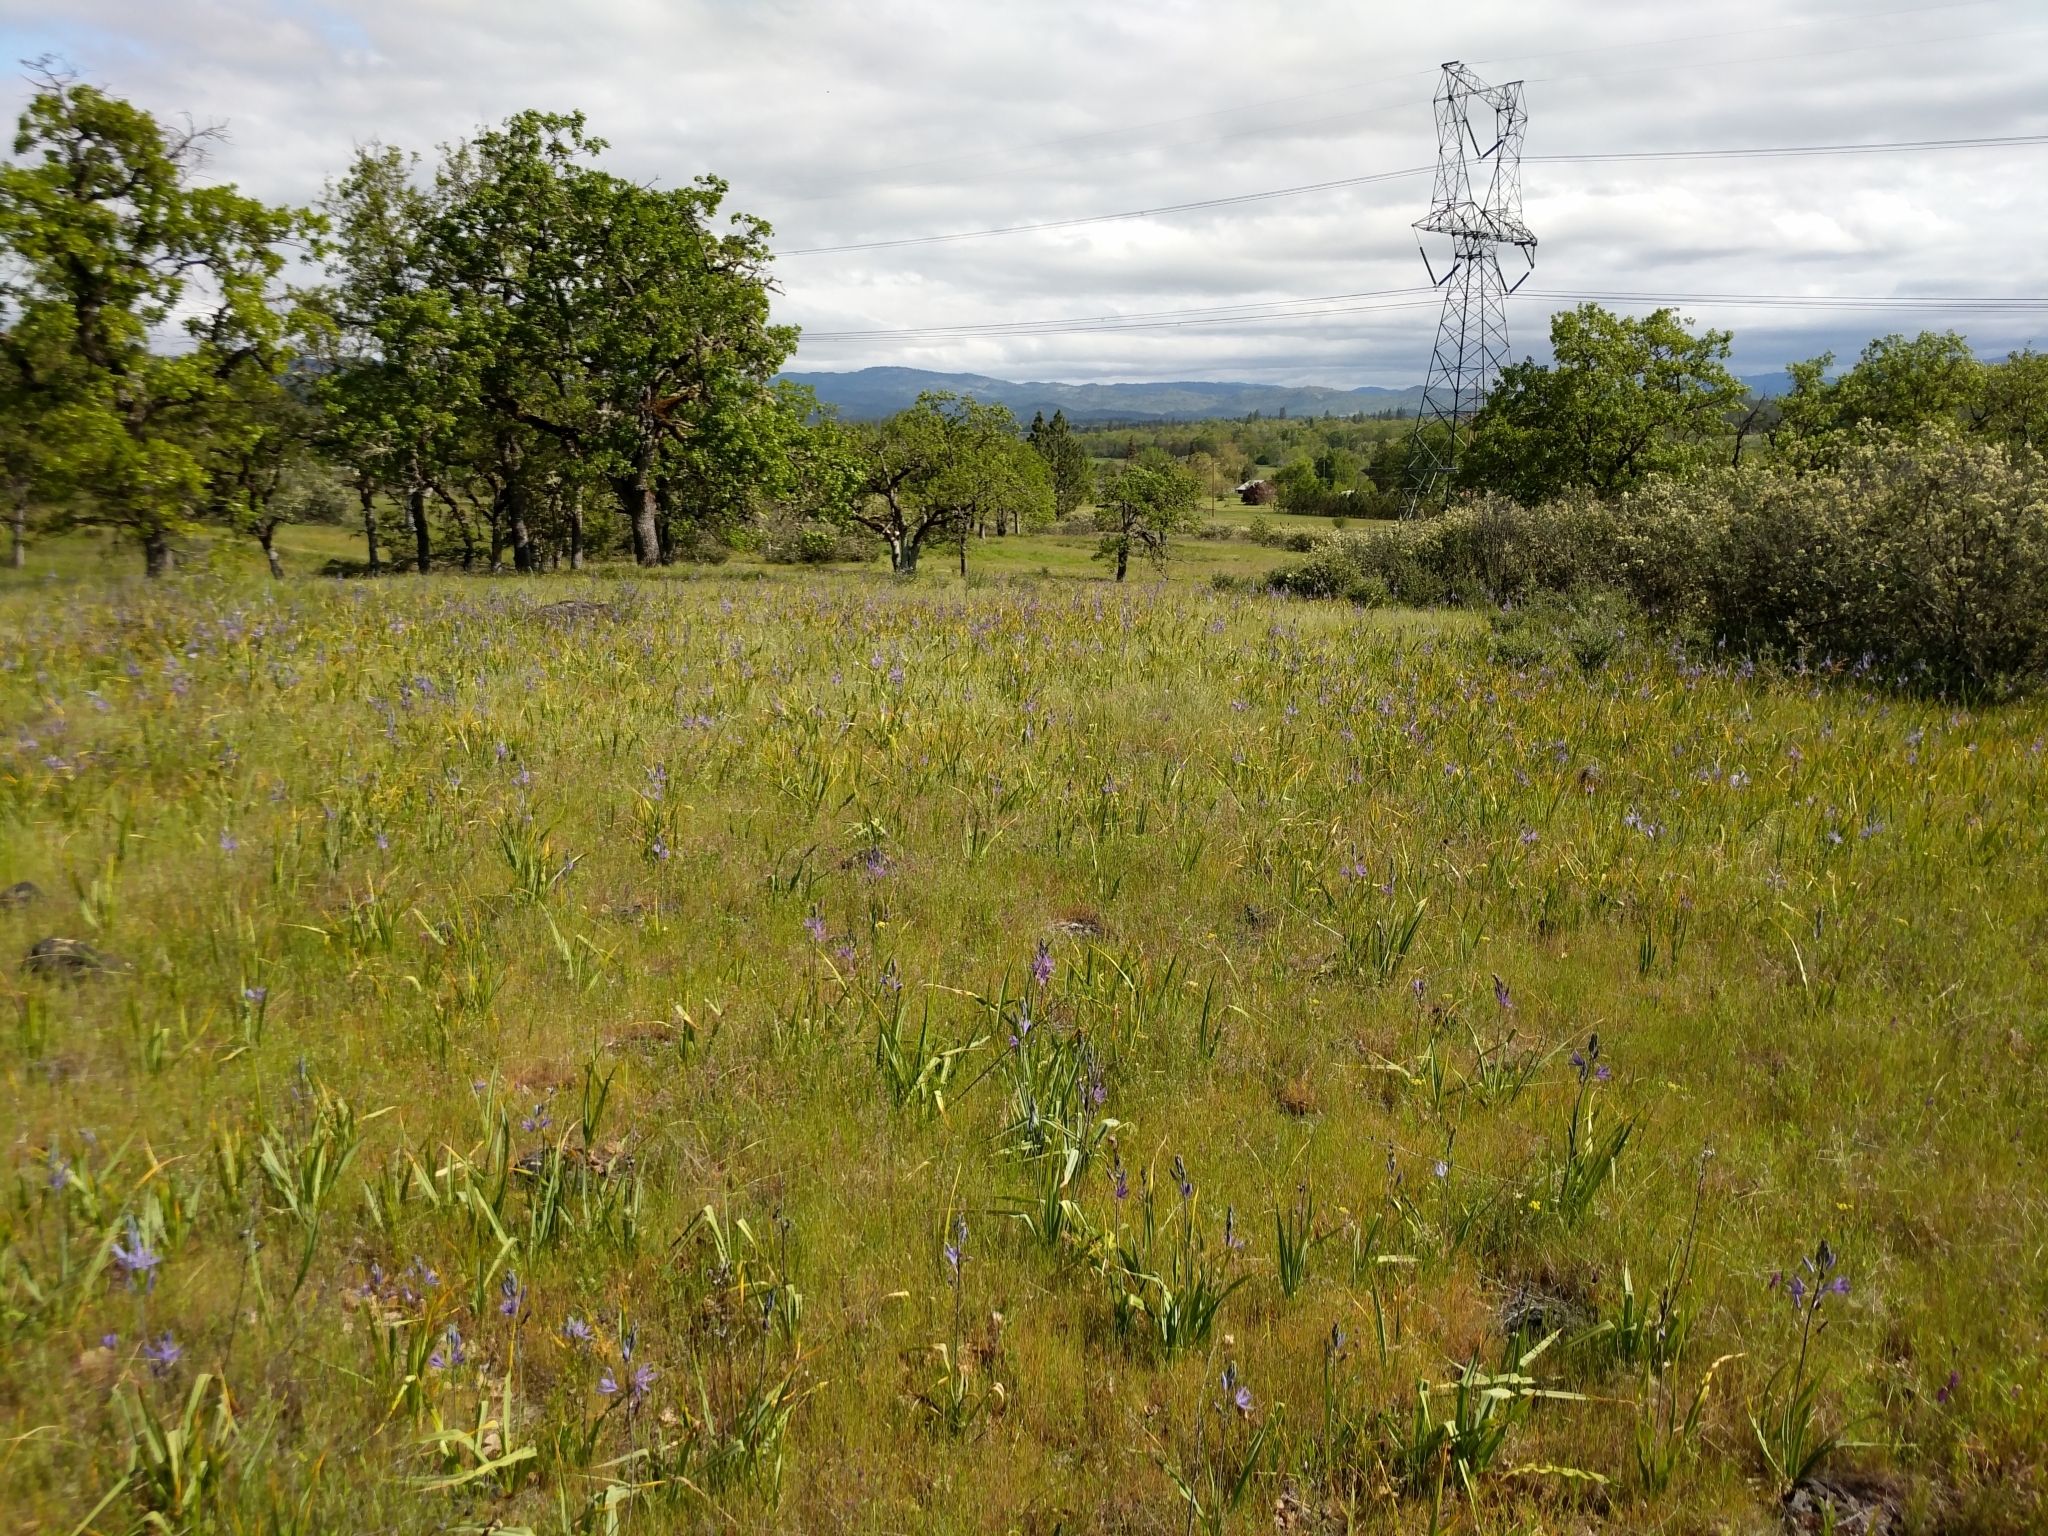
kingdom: Plantae
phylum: Tracheophyta
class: Liliopsida
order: Asparagales
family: Asparagaceae
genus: Camassia
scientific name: Camassia leichtlinii
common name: Leichtlin's camas
